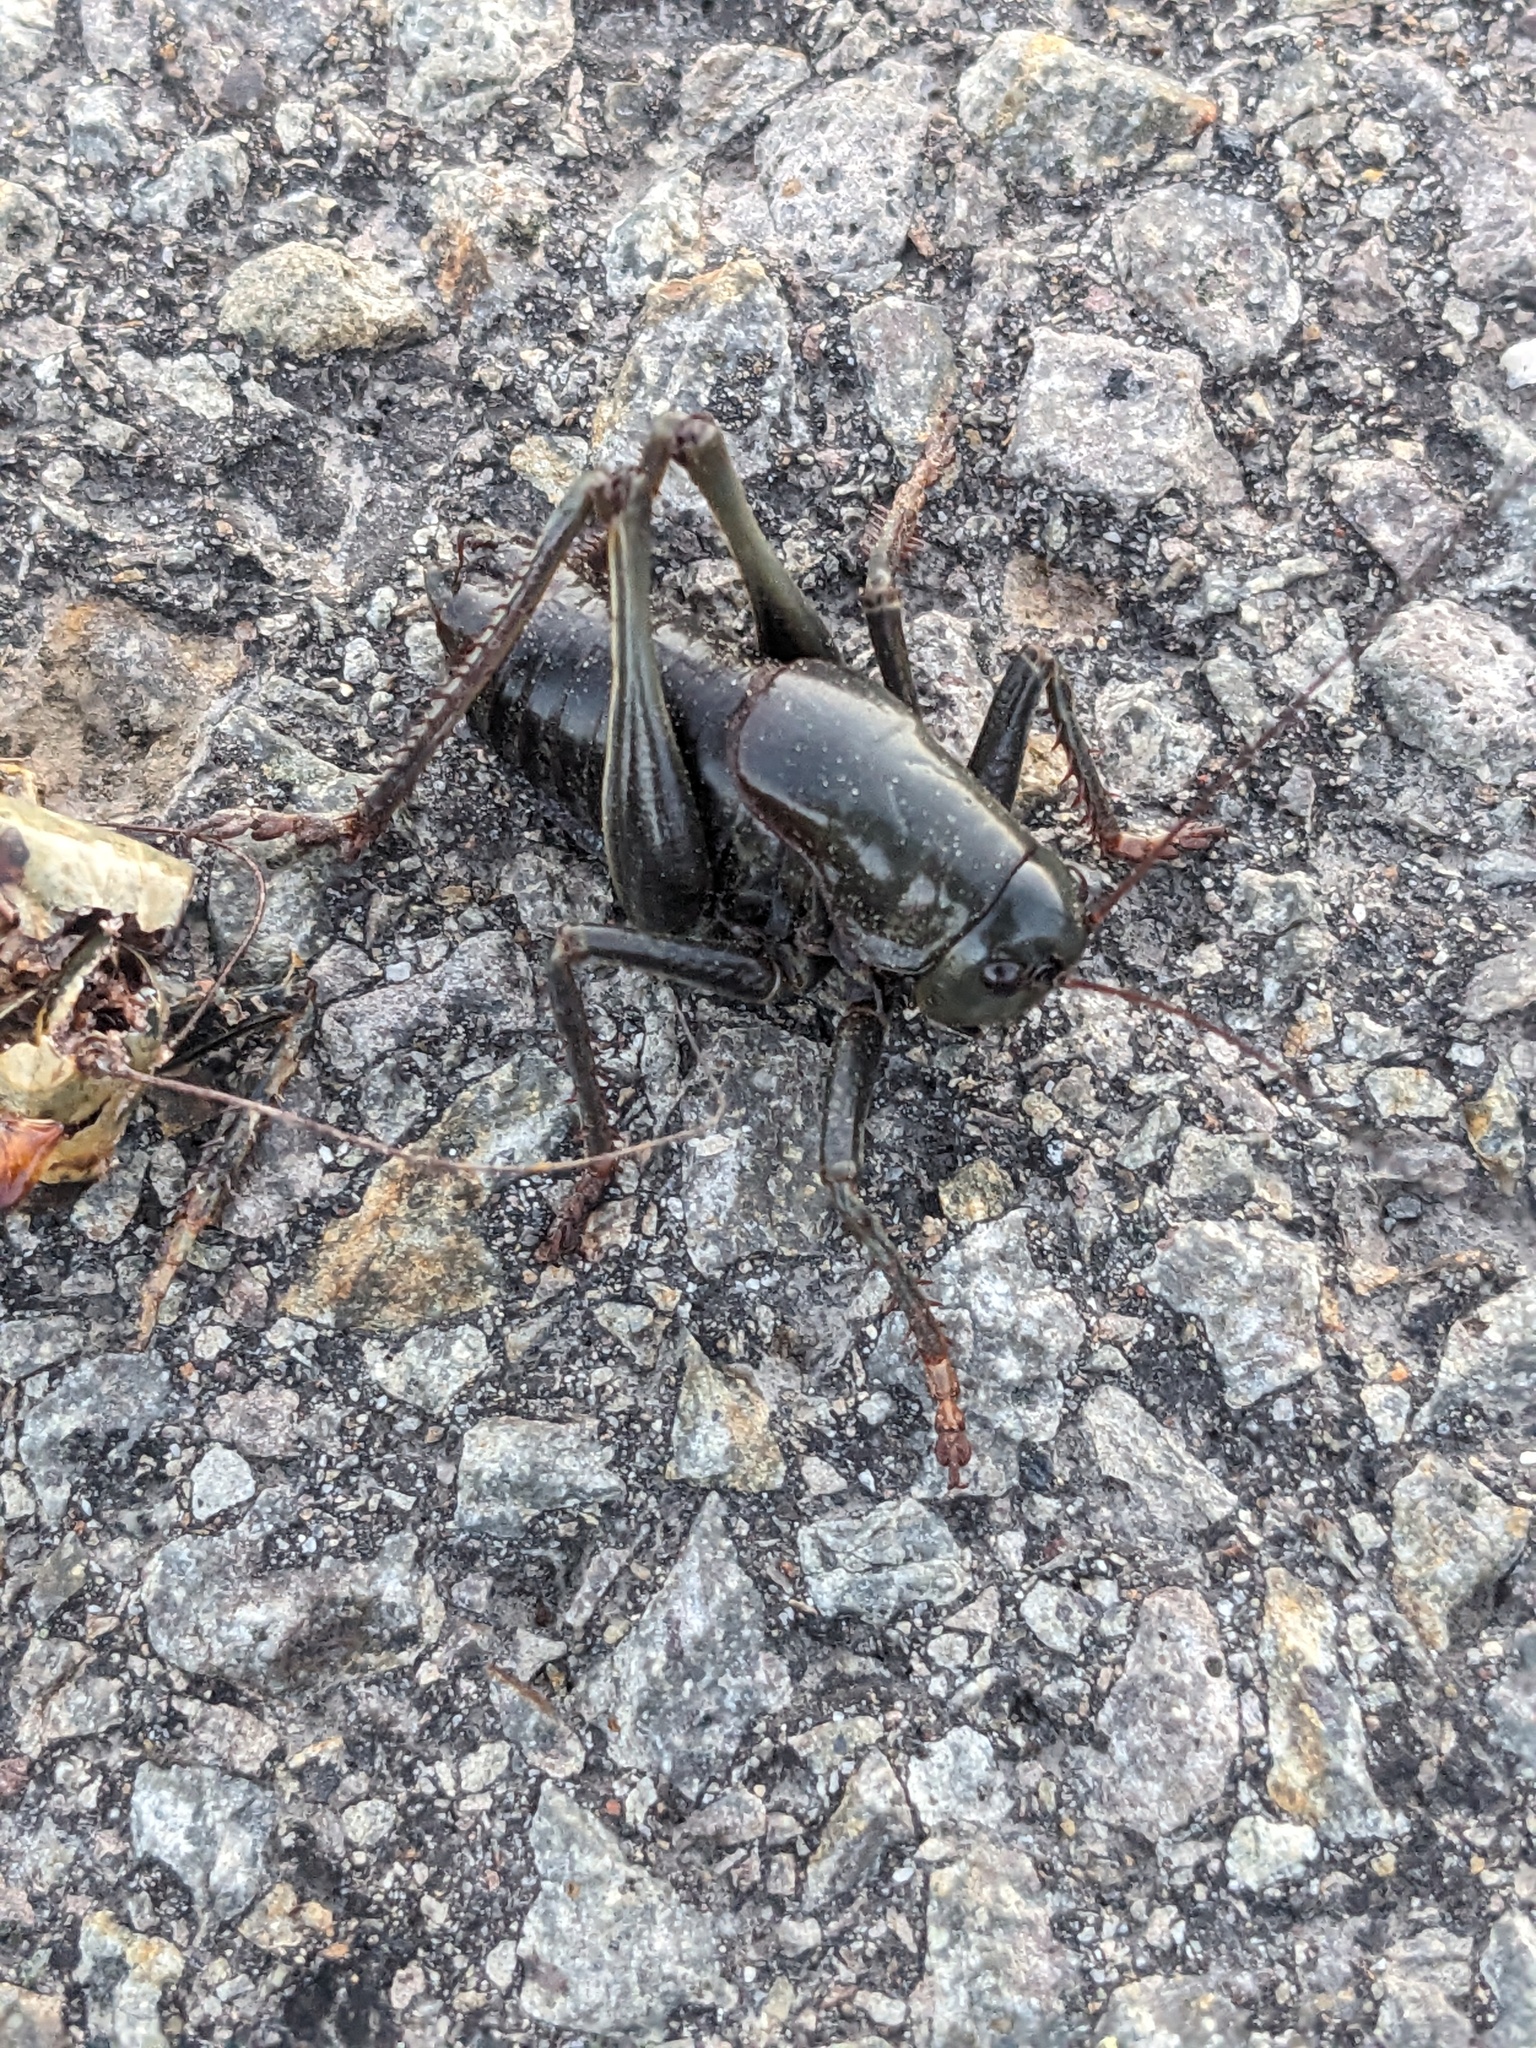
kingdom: Animalia
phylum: Arthropoda
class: Insecta
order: Orthoptera
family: Tettigoniidae
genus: Anabrus
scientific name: Anabrus simplex
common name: Mormon cricket
